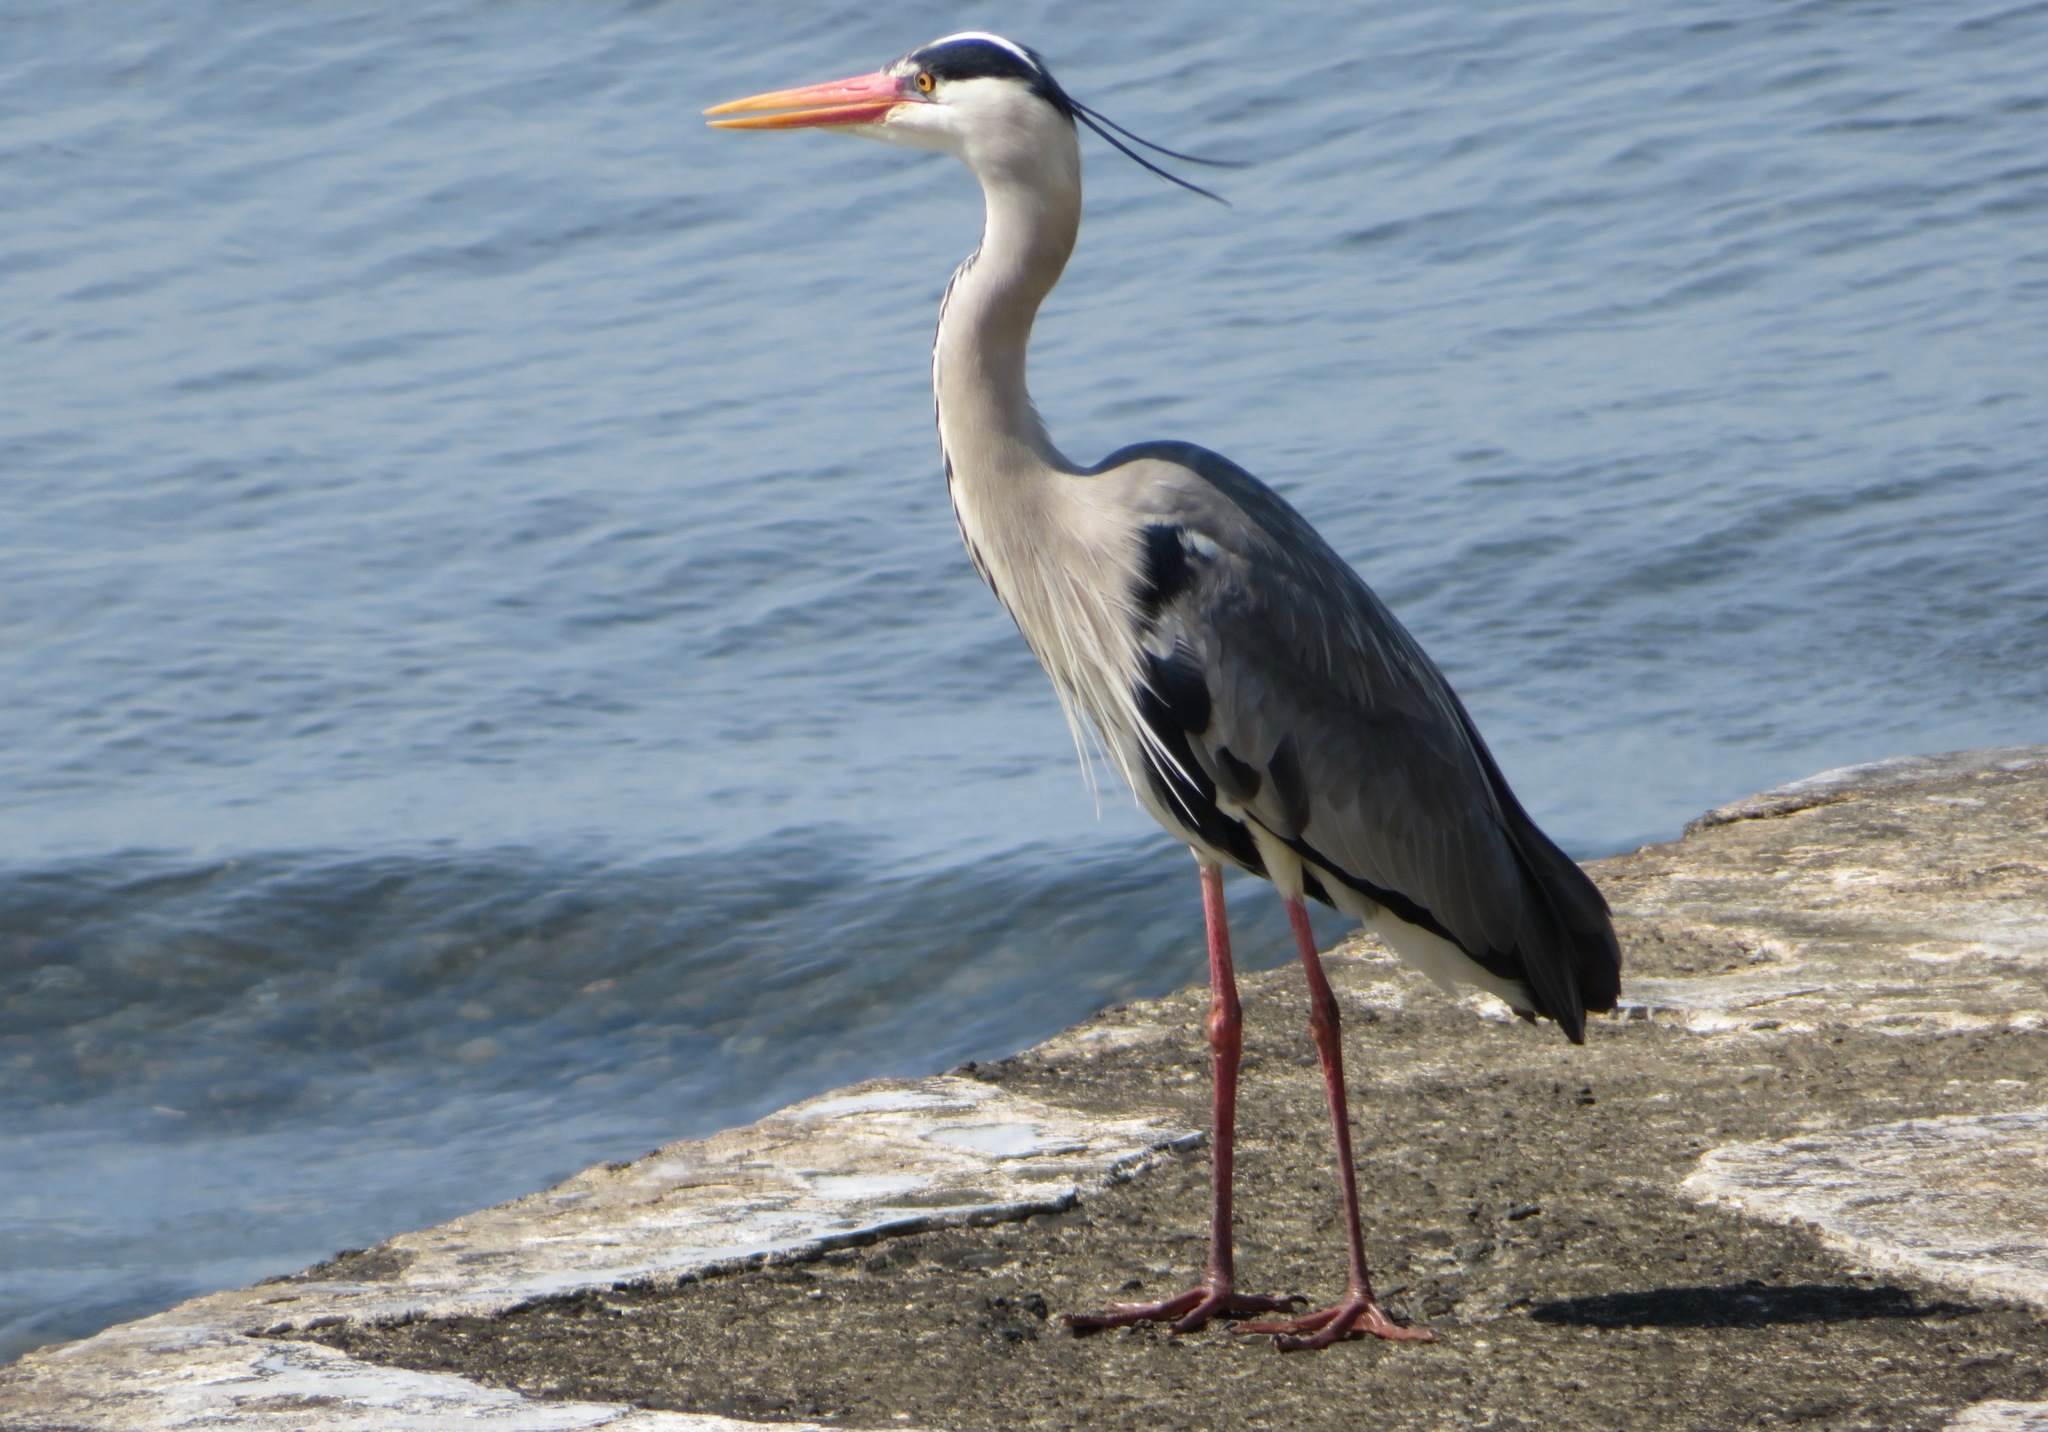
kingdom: Animalia
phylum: Chordata
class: Aves
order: Pelecaniformes
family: Ardeidae
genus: Ardea
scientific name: Ardea cinerea
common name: Grey heron
